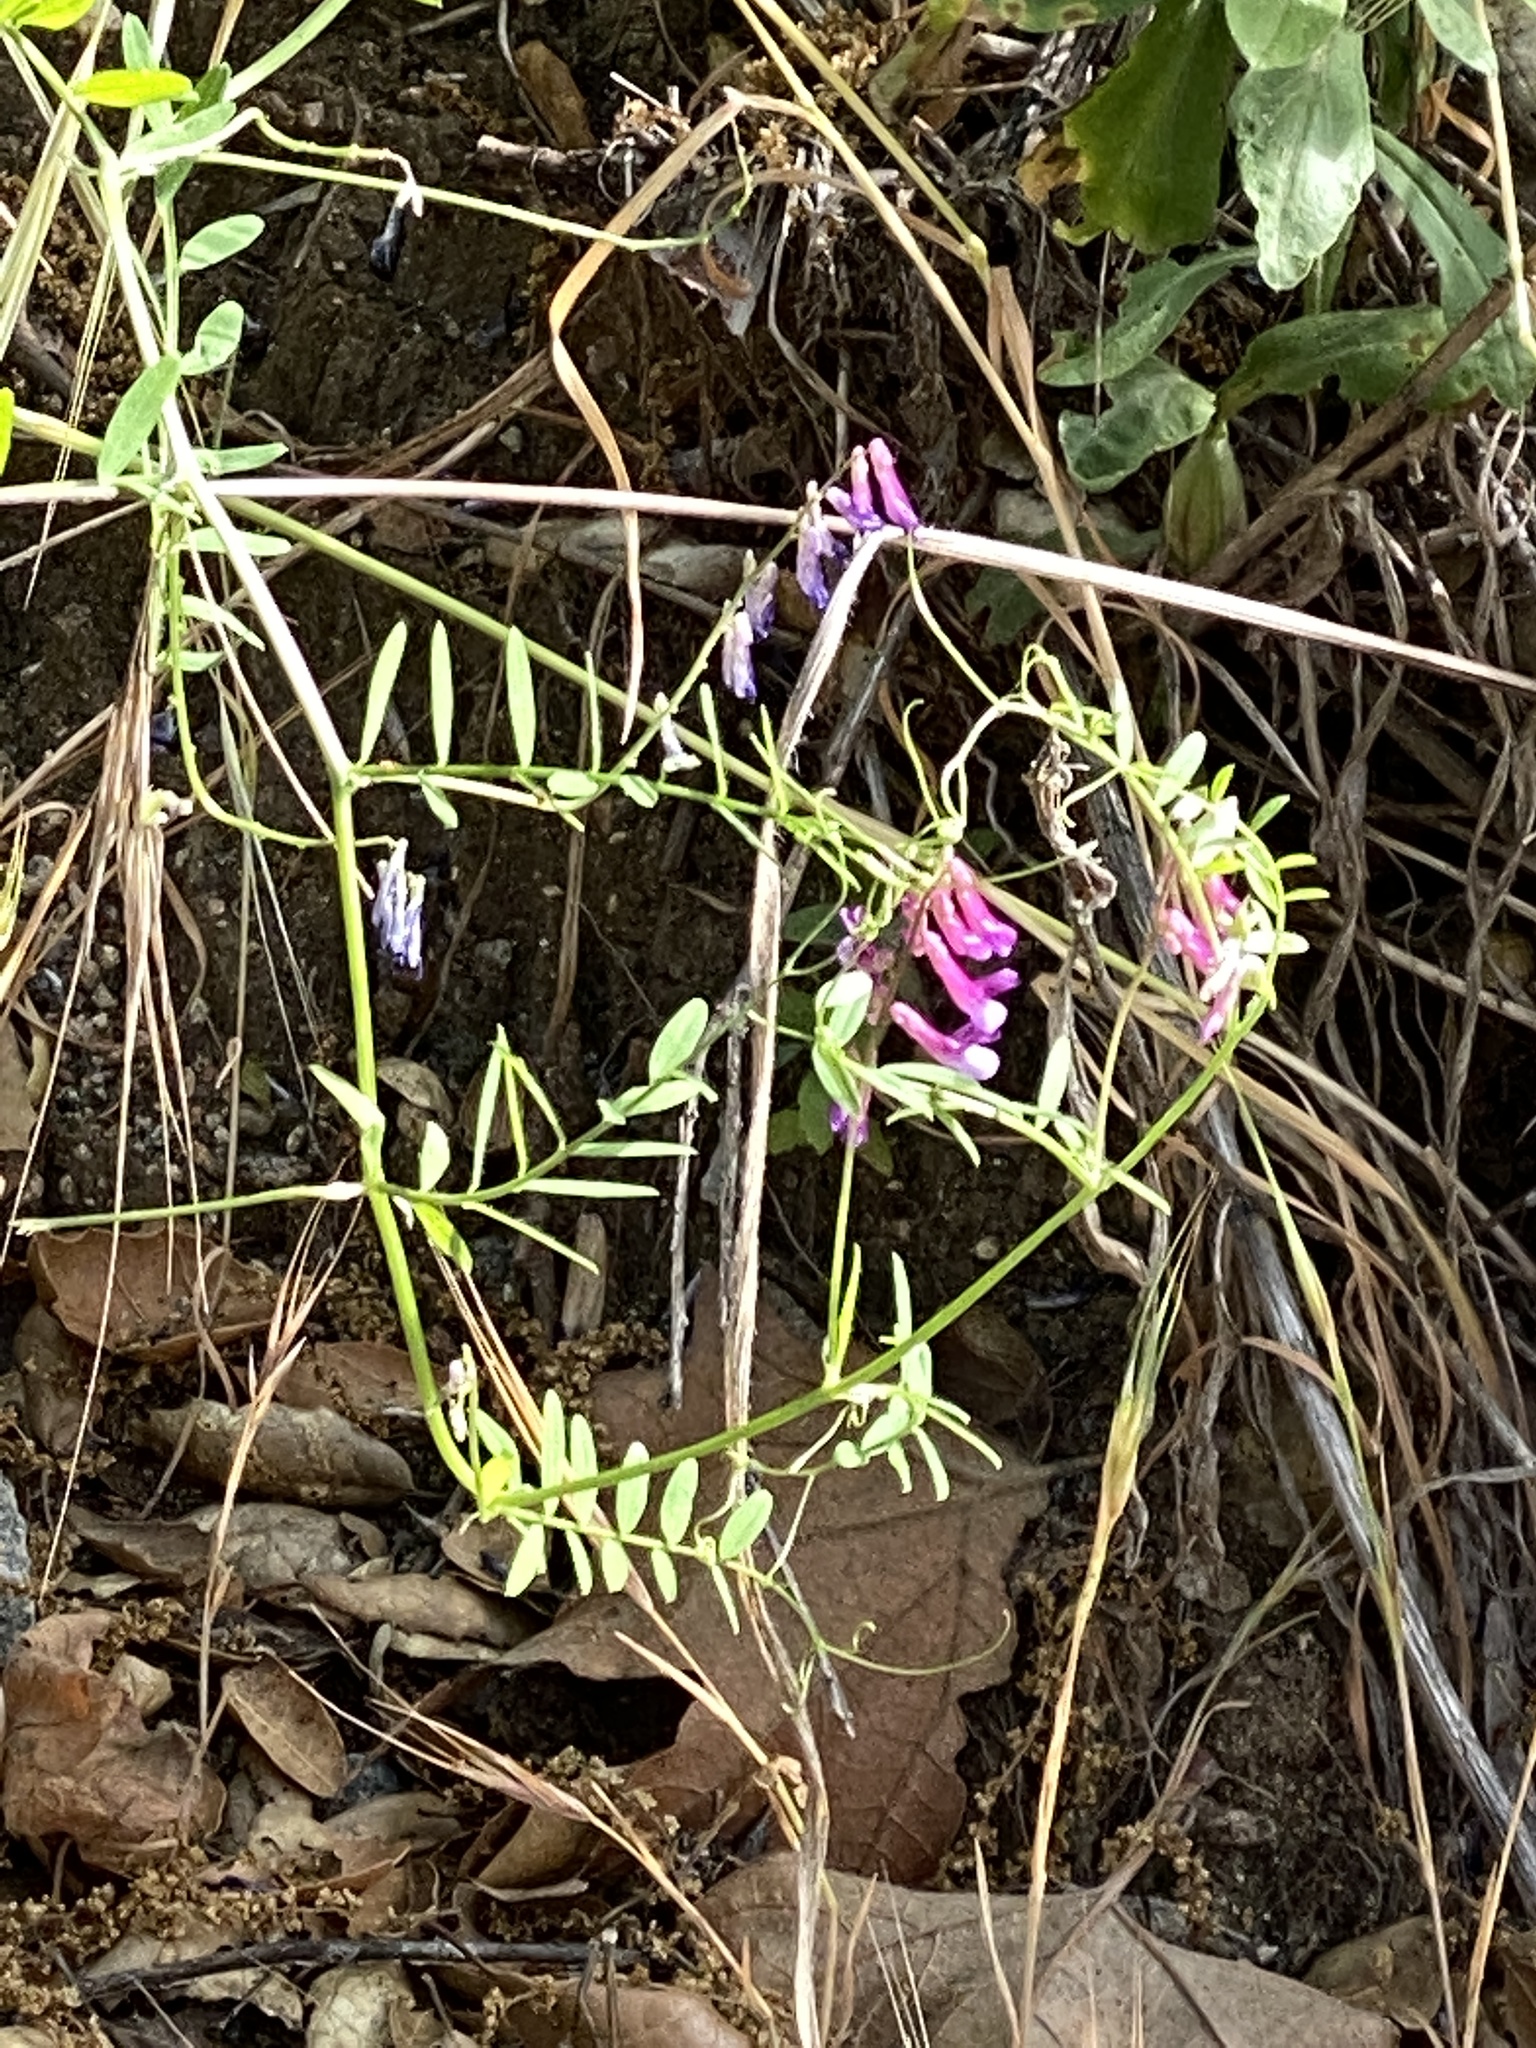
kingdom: Plantae
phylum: Tracheophyta
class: Magnoliopsida
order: Fabales
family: Fabaceae
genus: Vicia
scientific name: Vicia villosa
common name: Fodder vetch
